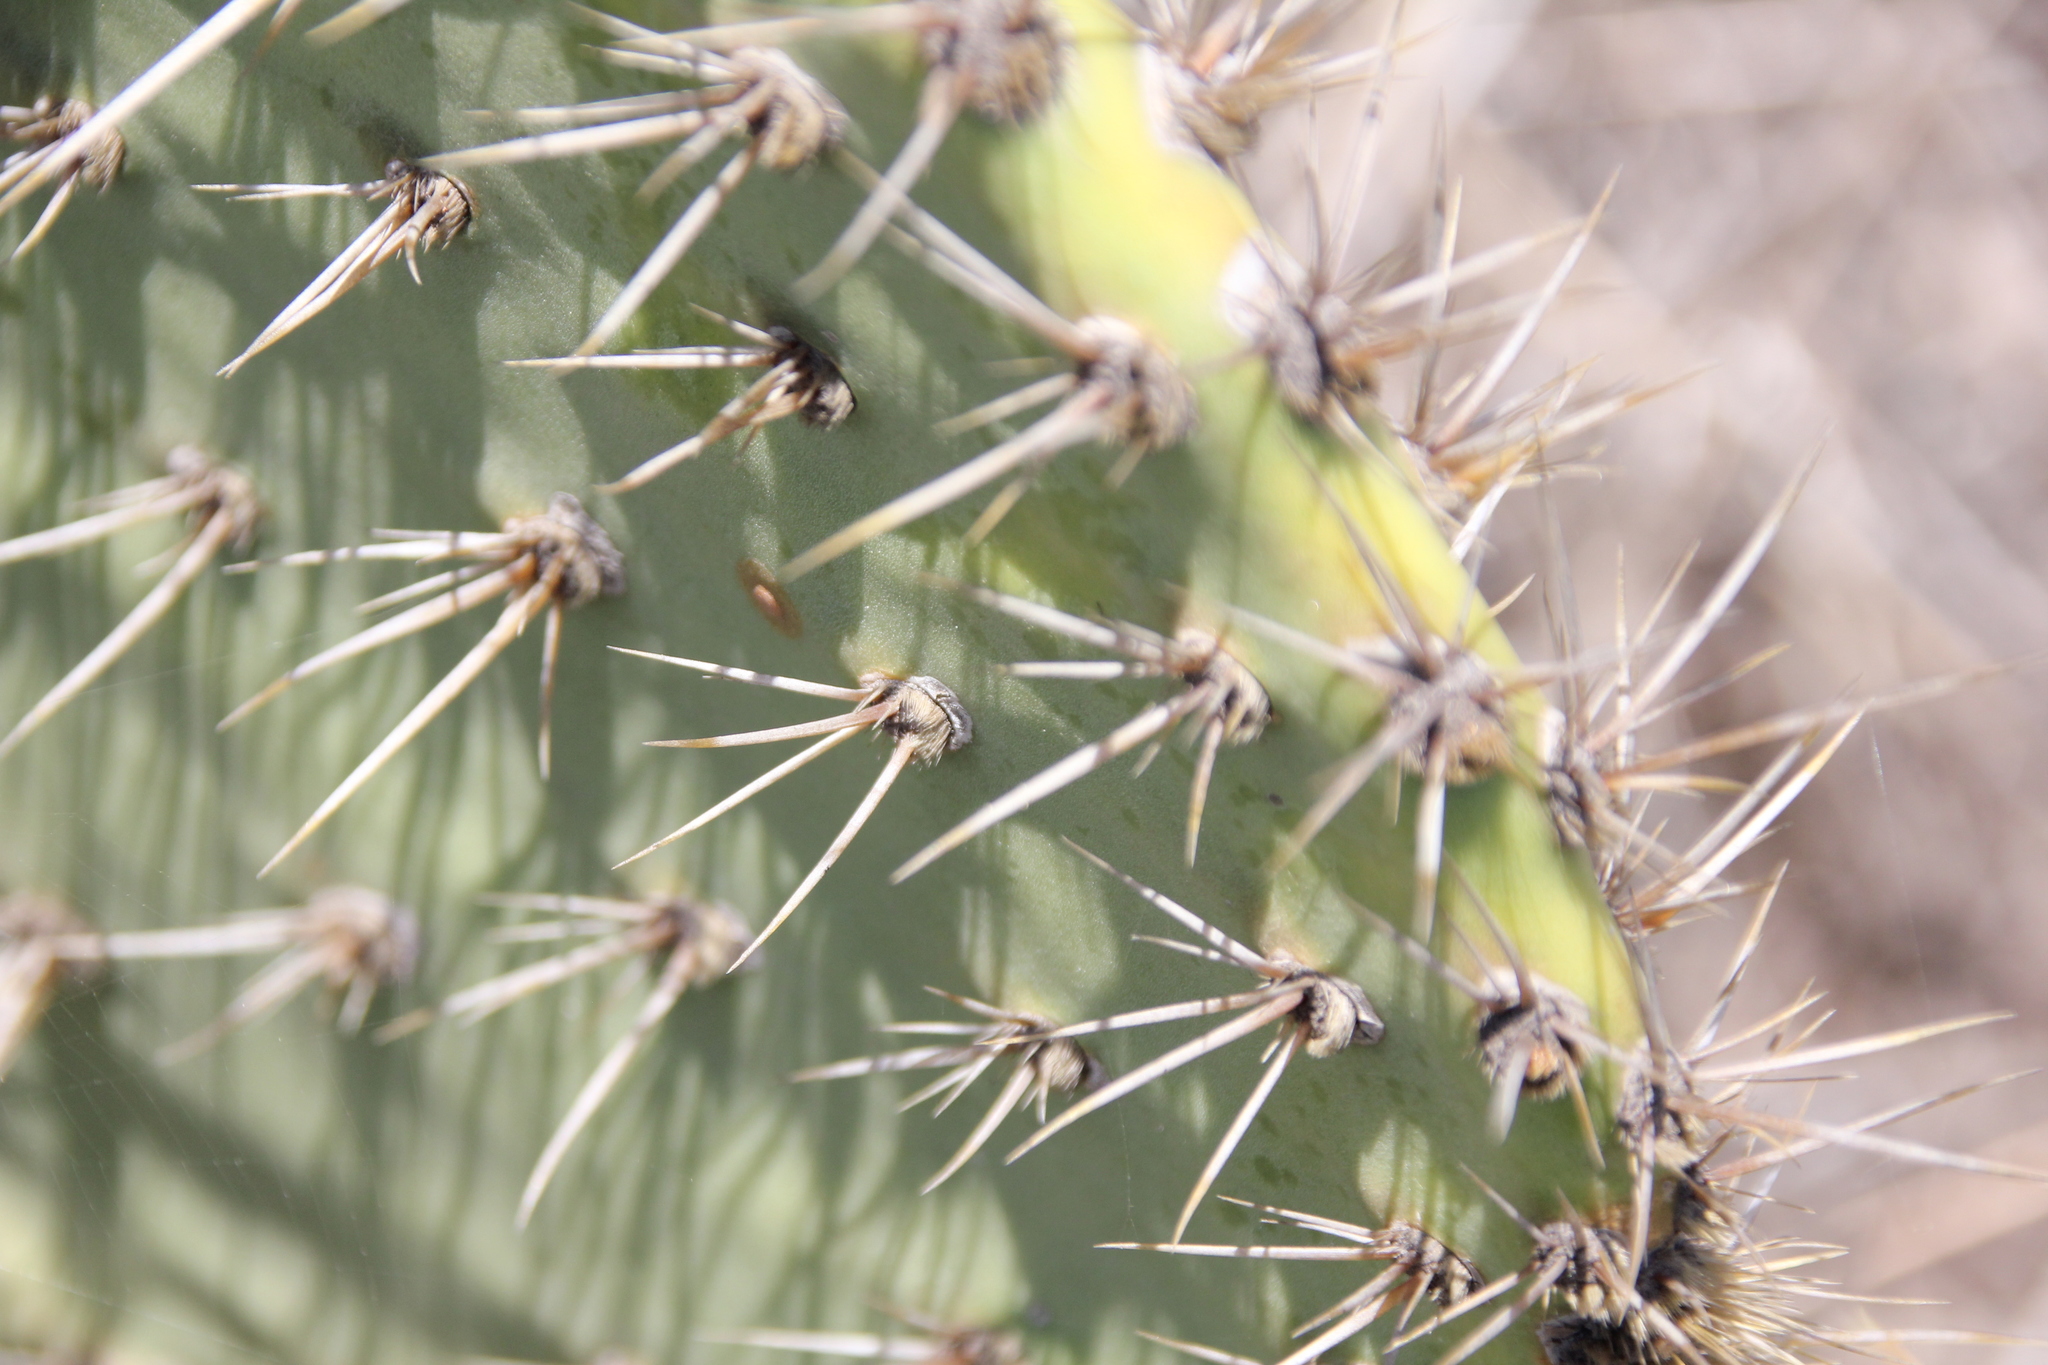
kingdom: Plantae
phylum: Tracheophyta
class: Magnoliopsida
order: Caryophyllales
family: Cactaceae
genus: Opuntia
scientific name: Opuntia oricola
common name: Chaparral prickly-pear
